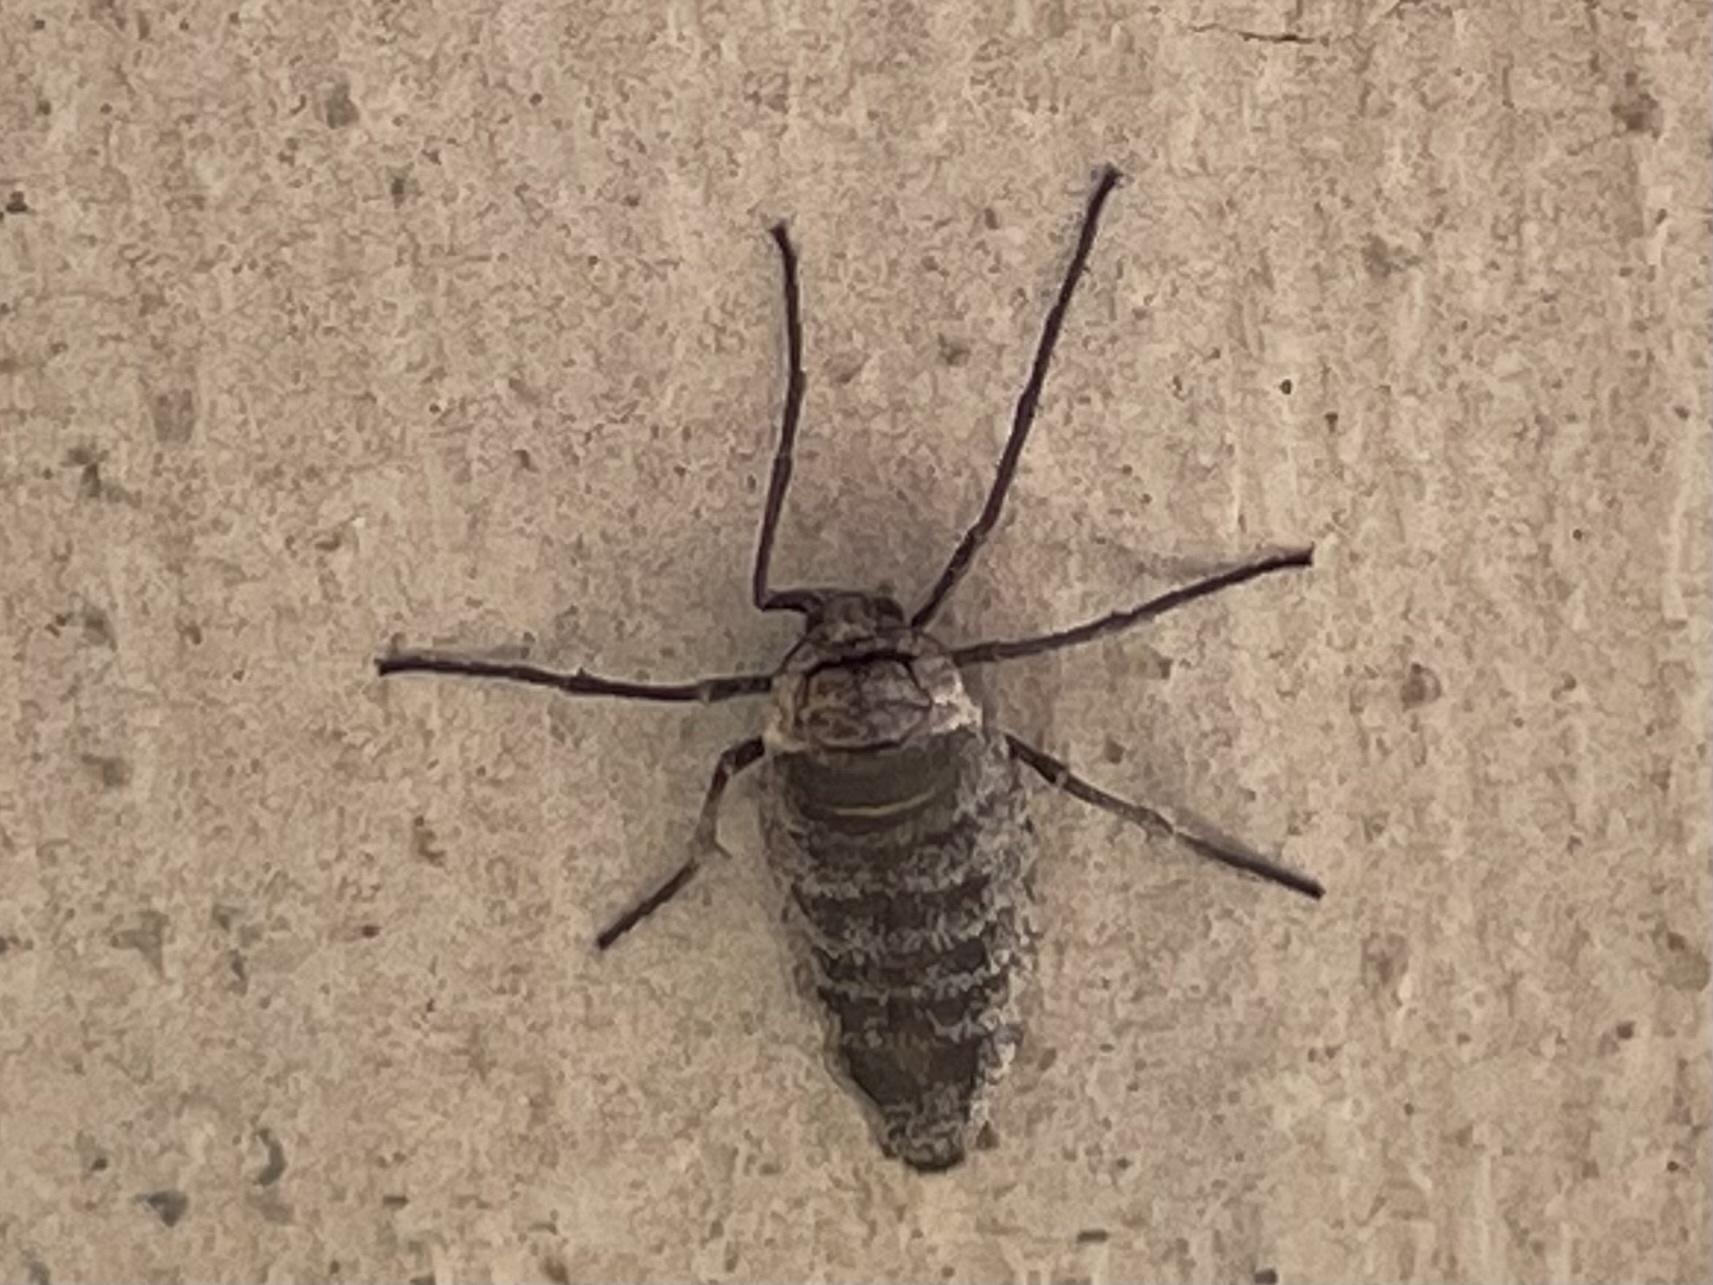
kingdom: Animalia
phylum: Arthropoda
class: Insecta
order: Lepidoptera
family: Geometridae
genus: Alsophila
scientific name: Alsophila pometaria
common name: Fall cankerworm
